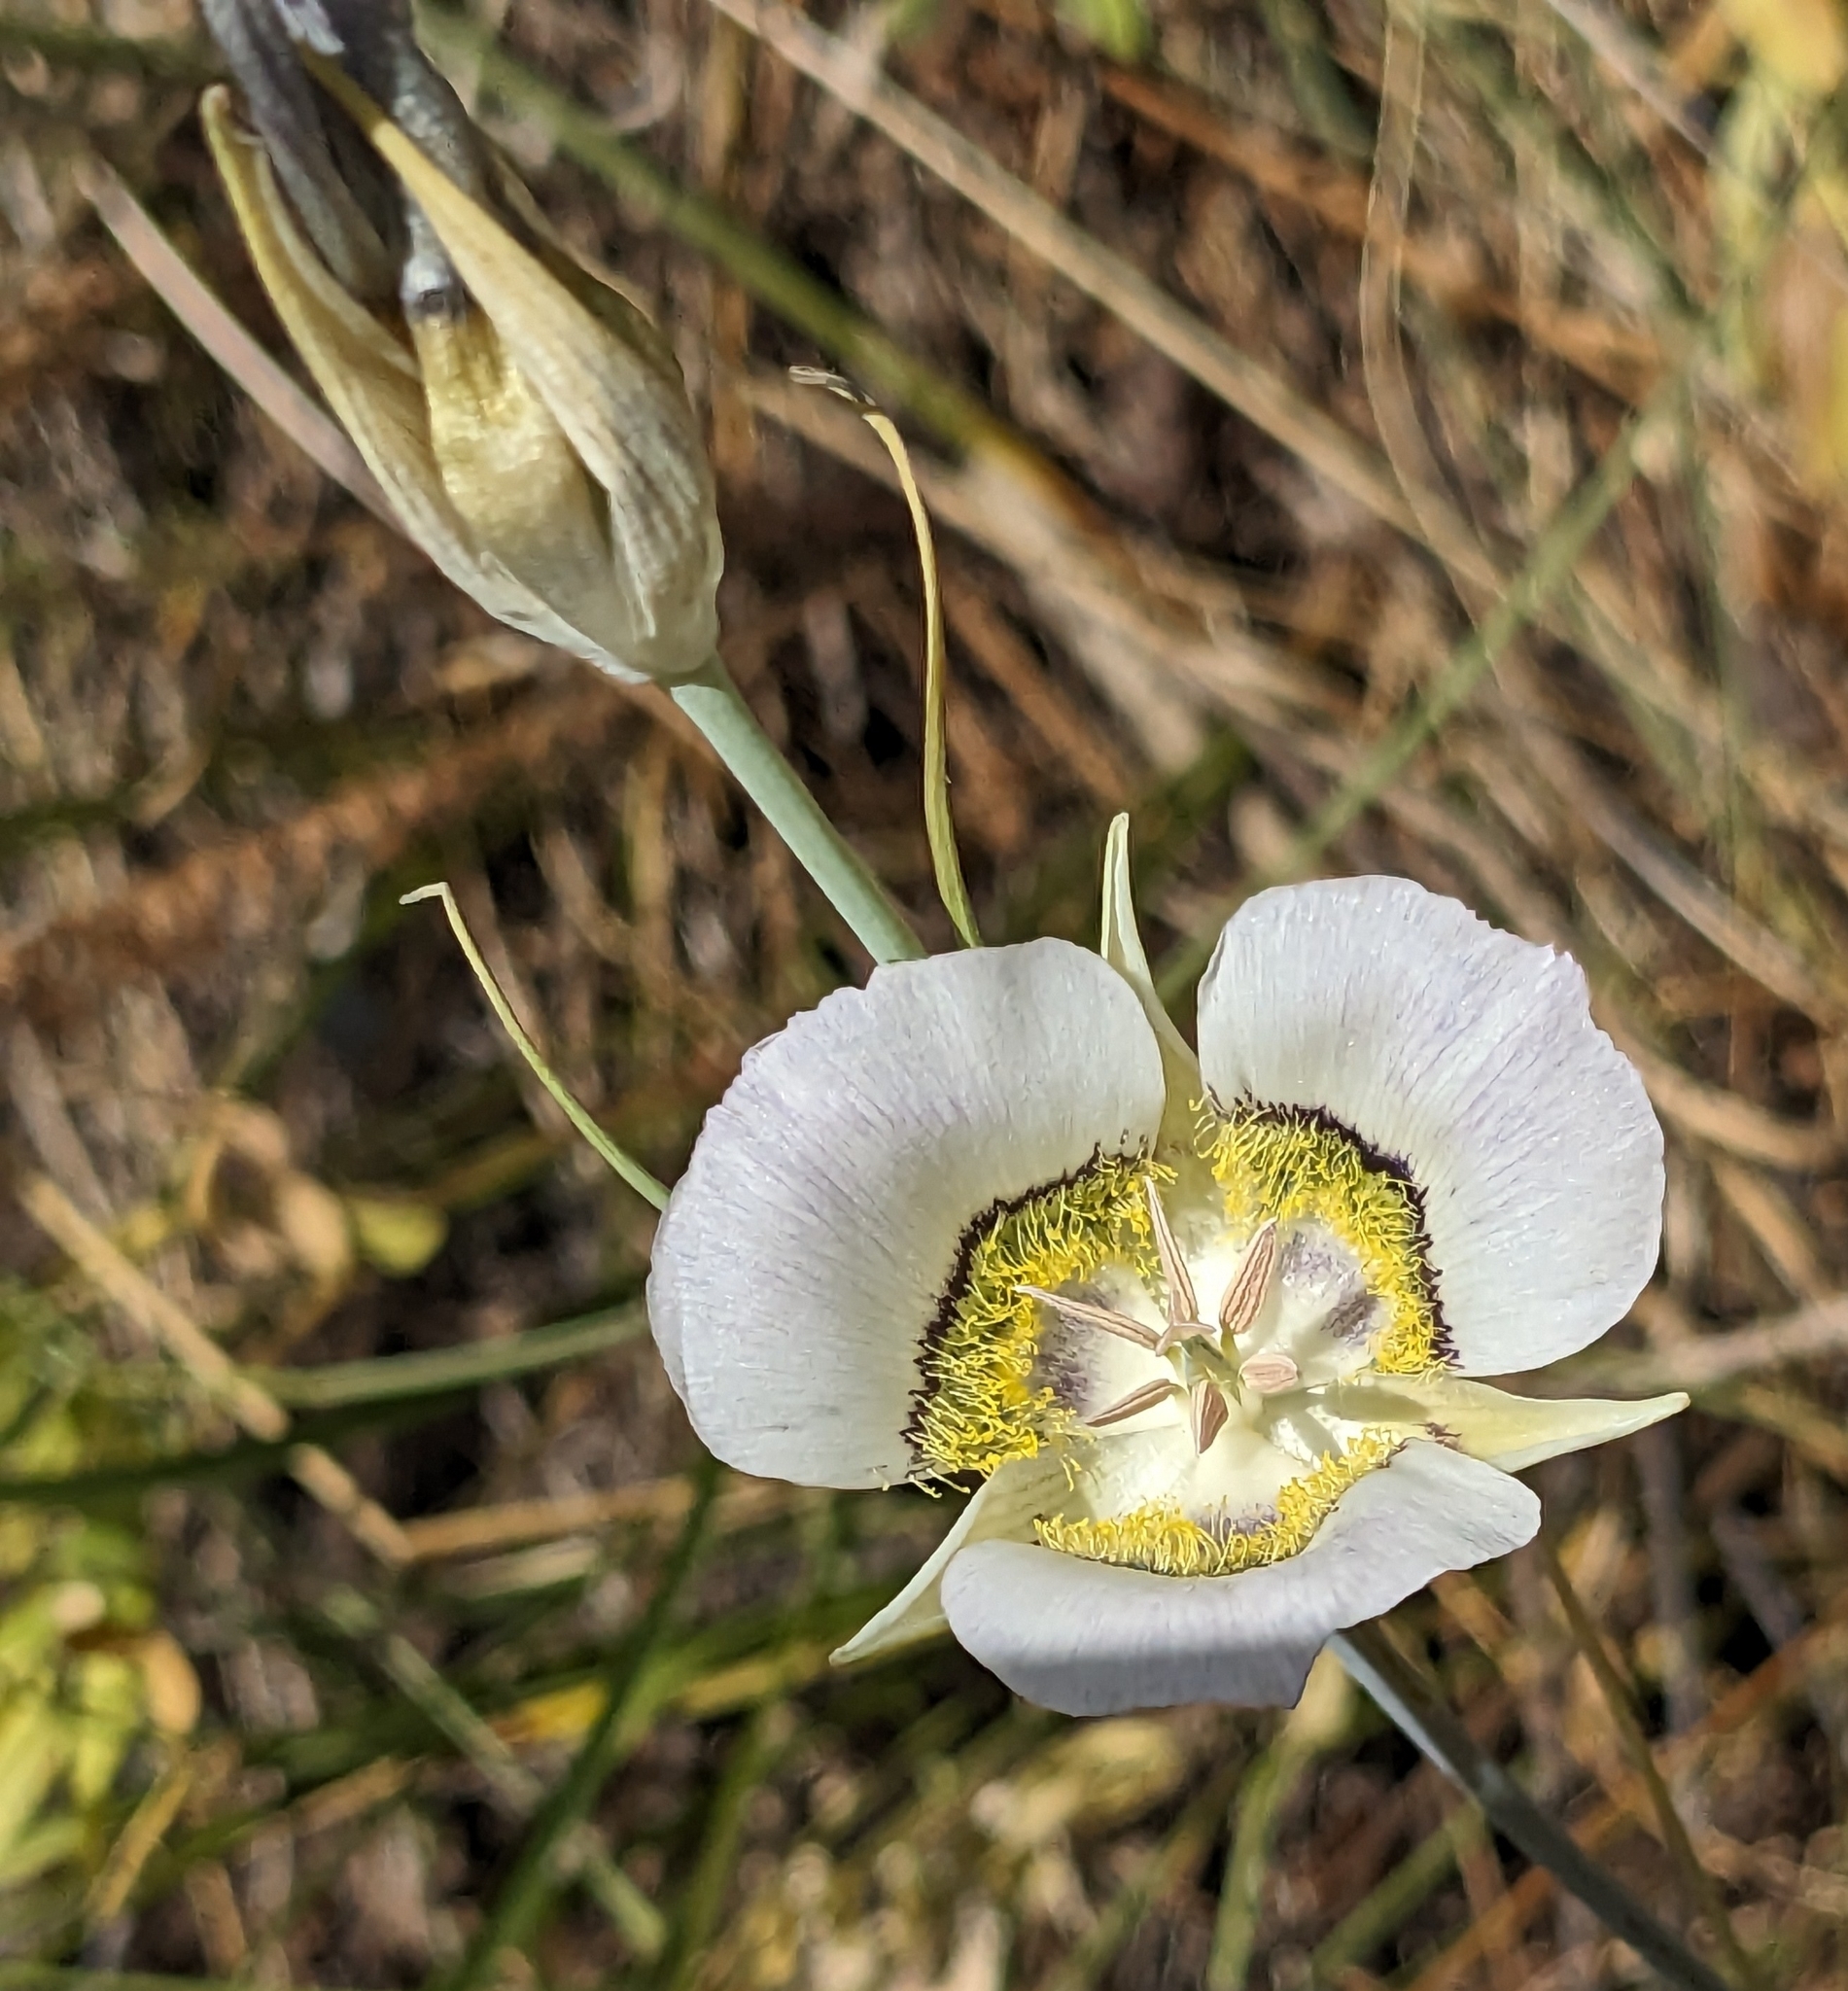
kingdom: Plantae
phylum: Tracheophyta
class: Liliopsida
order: Liliales
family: Liliaceae
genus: Calochortus
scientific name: Calochortus gunnisonii
